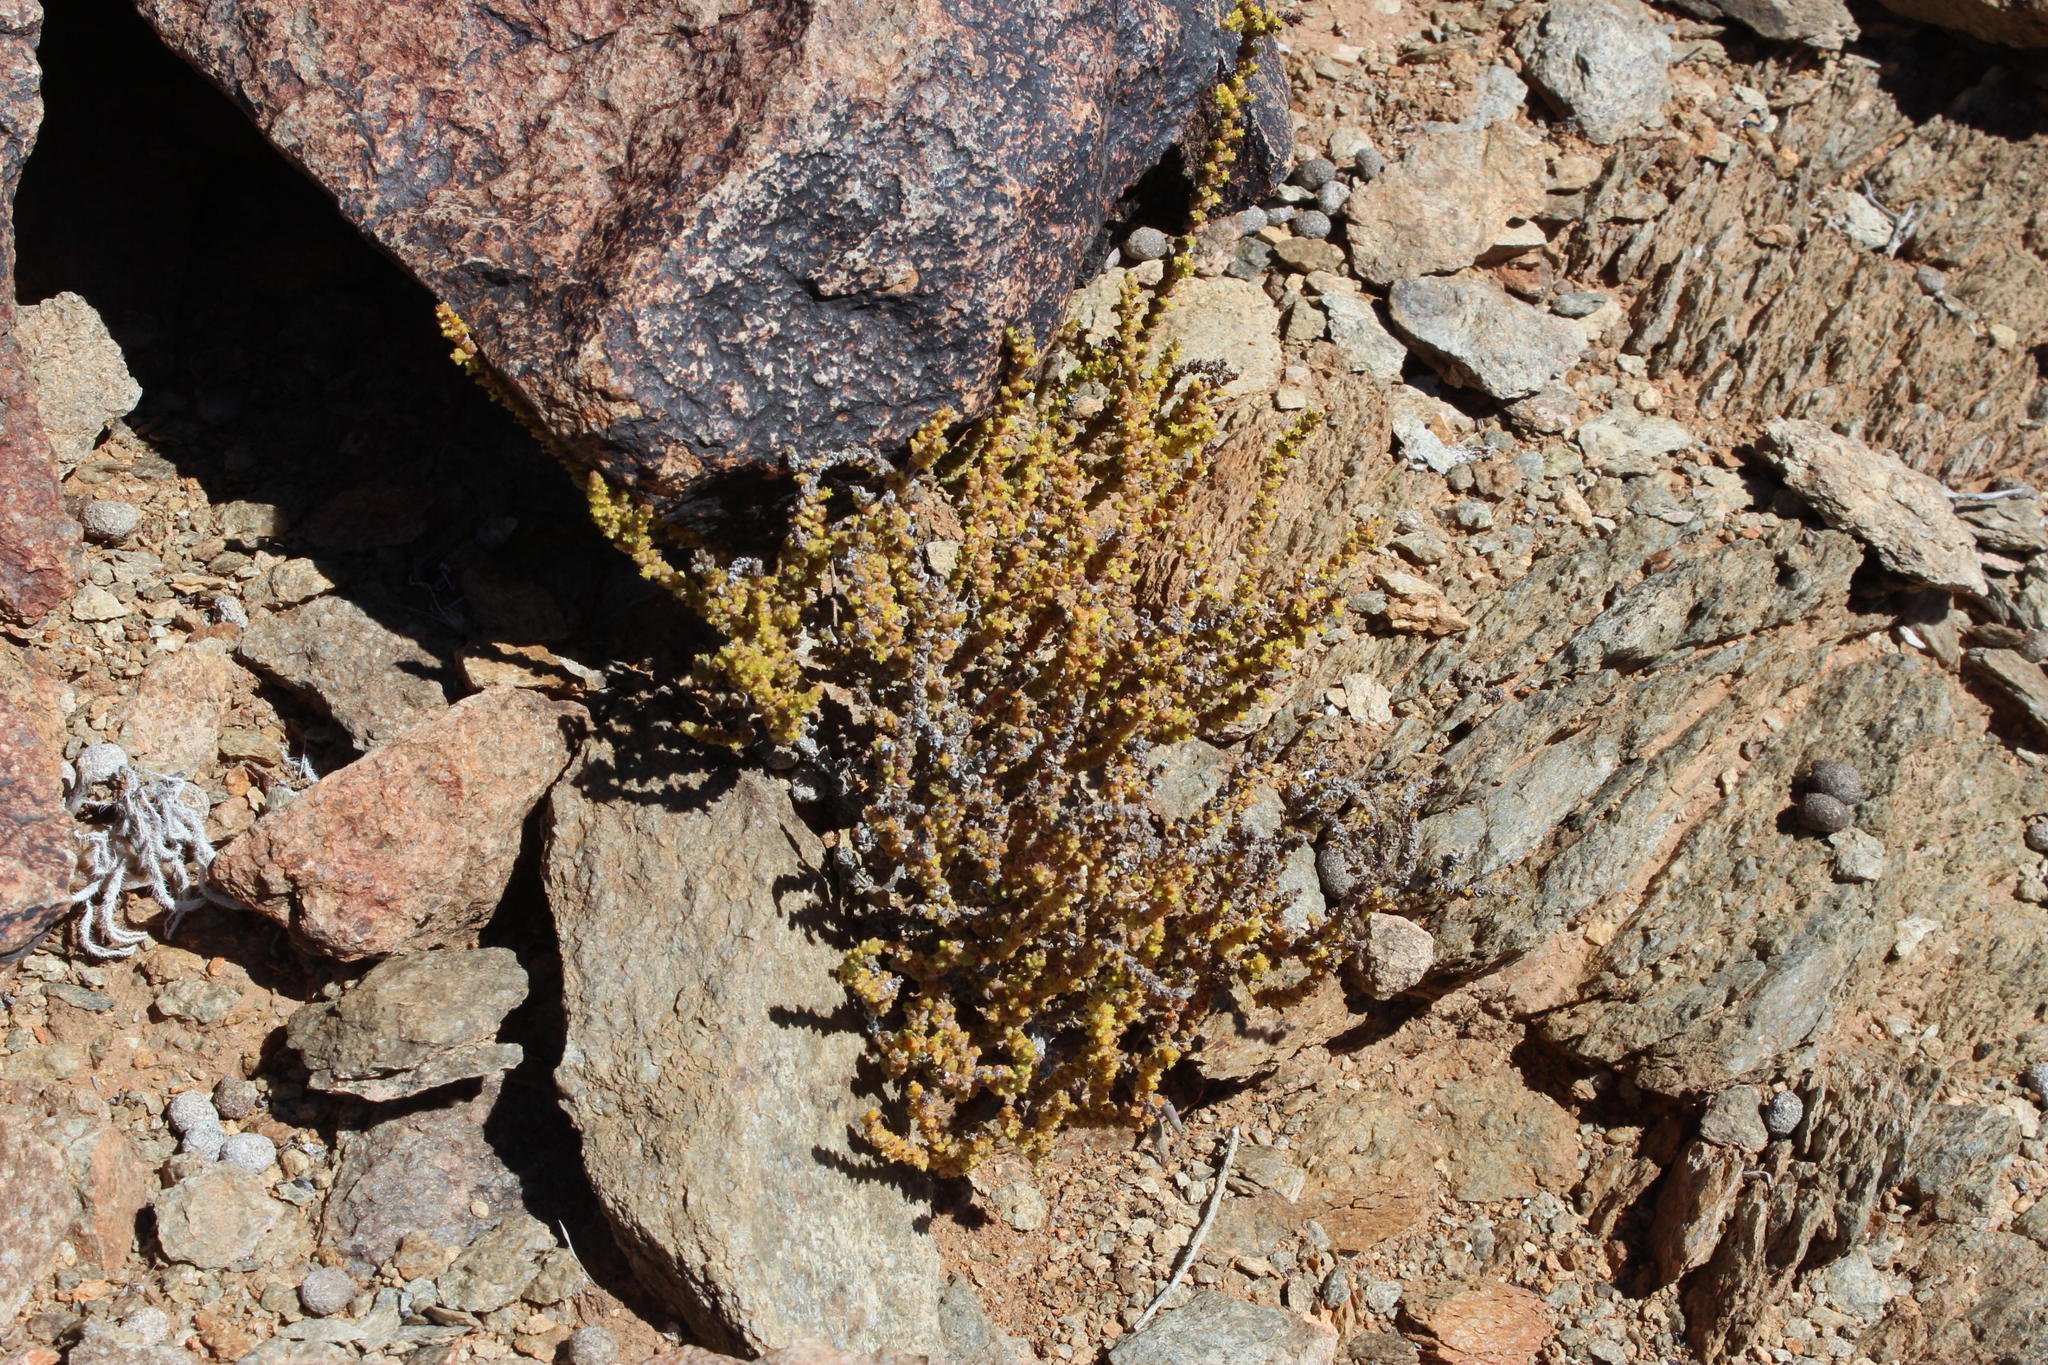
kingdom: Plantae
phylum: Tracheophyta
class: Magnoliopsida
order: Saxifragales
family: Crassulaceae
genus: Crassula
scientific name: Crassula muscosa
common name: Toy-cypress
